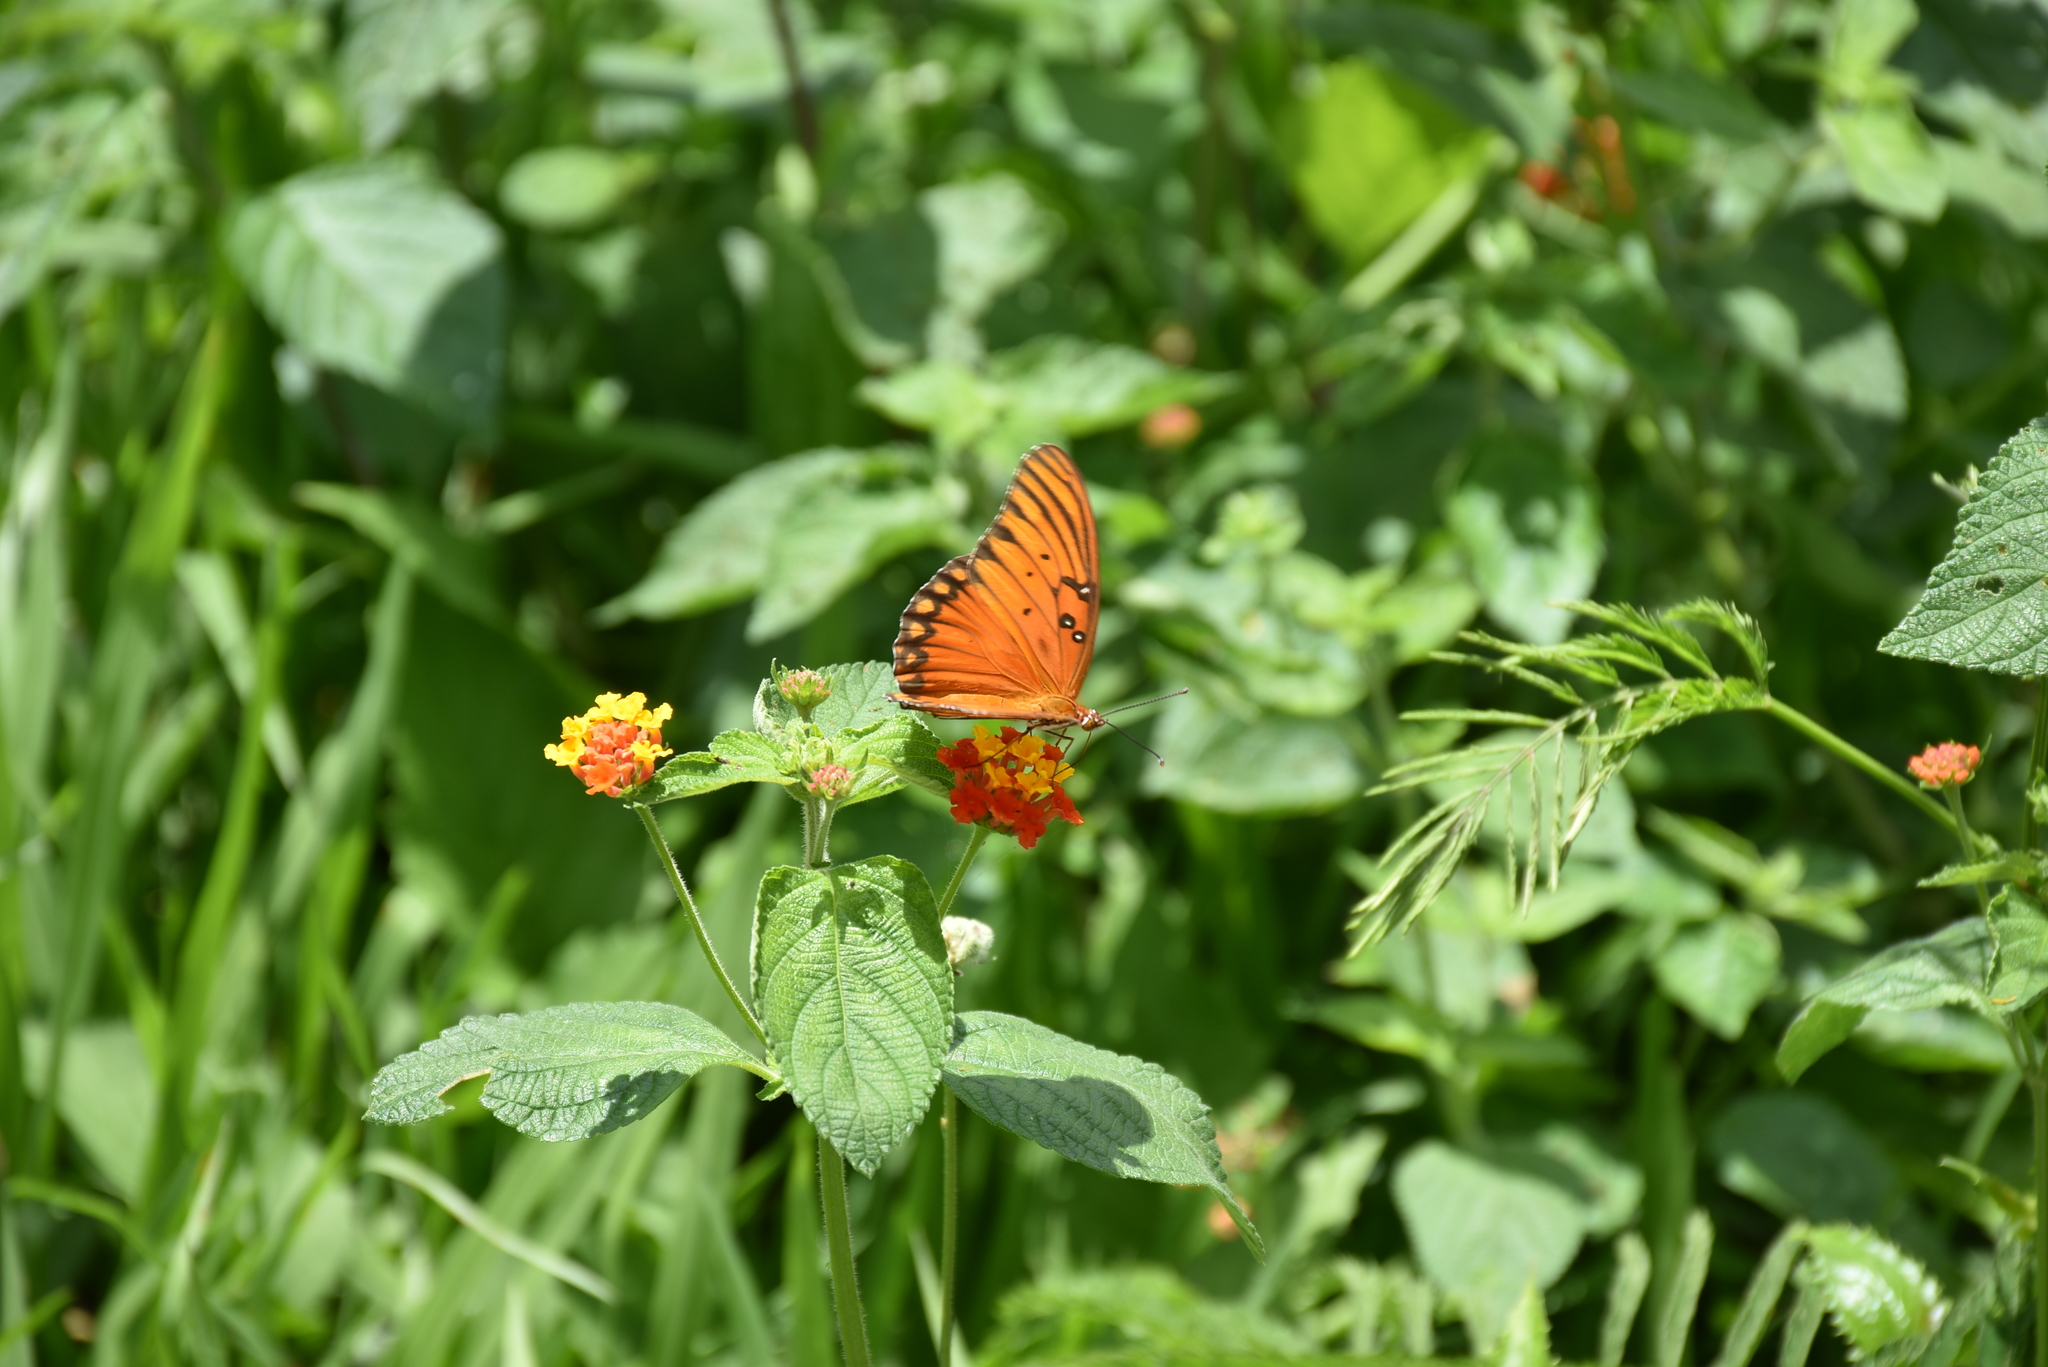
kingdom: Animalia
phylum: Arthropoda
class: Insecta
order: Lepidoptera
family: Nymphalidae
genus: Dione
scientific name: Dione vanillae
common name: Gulf fritillary
